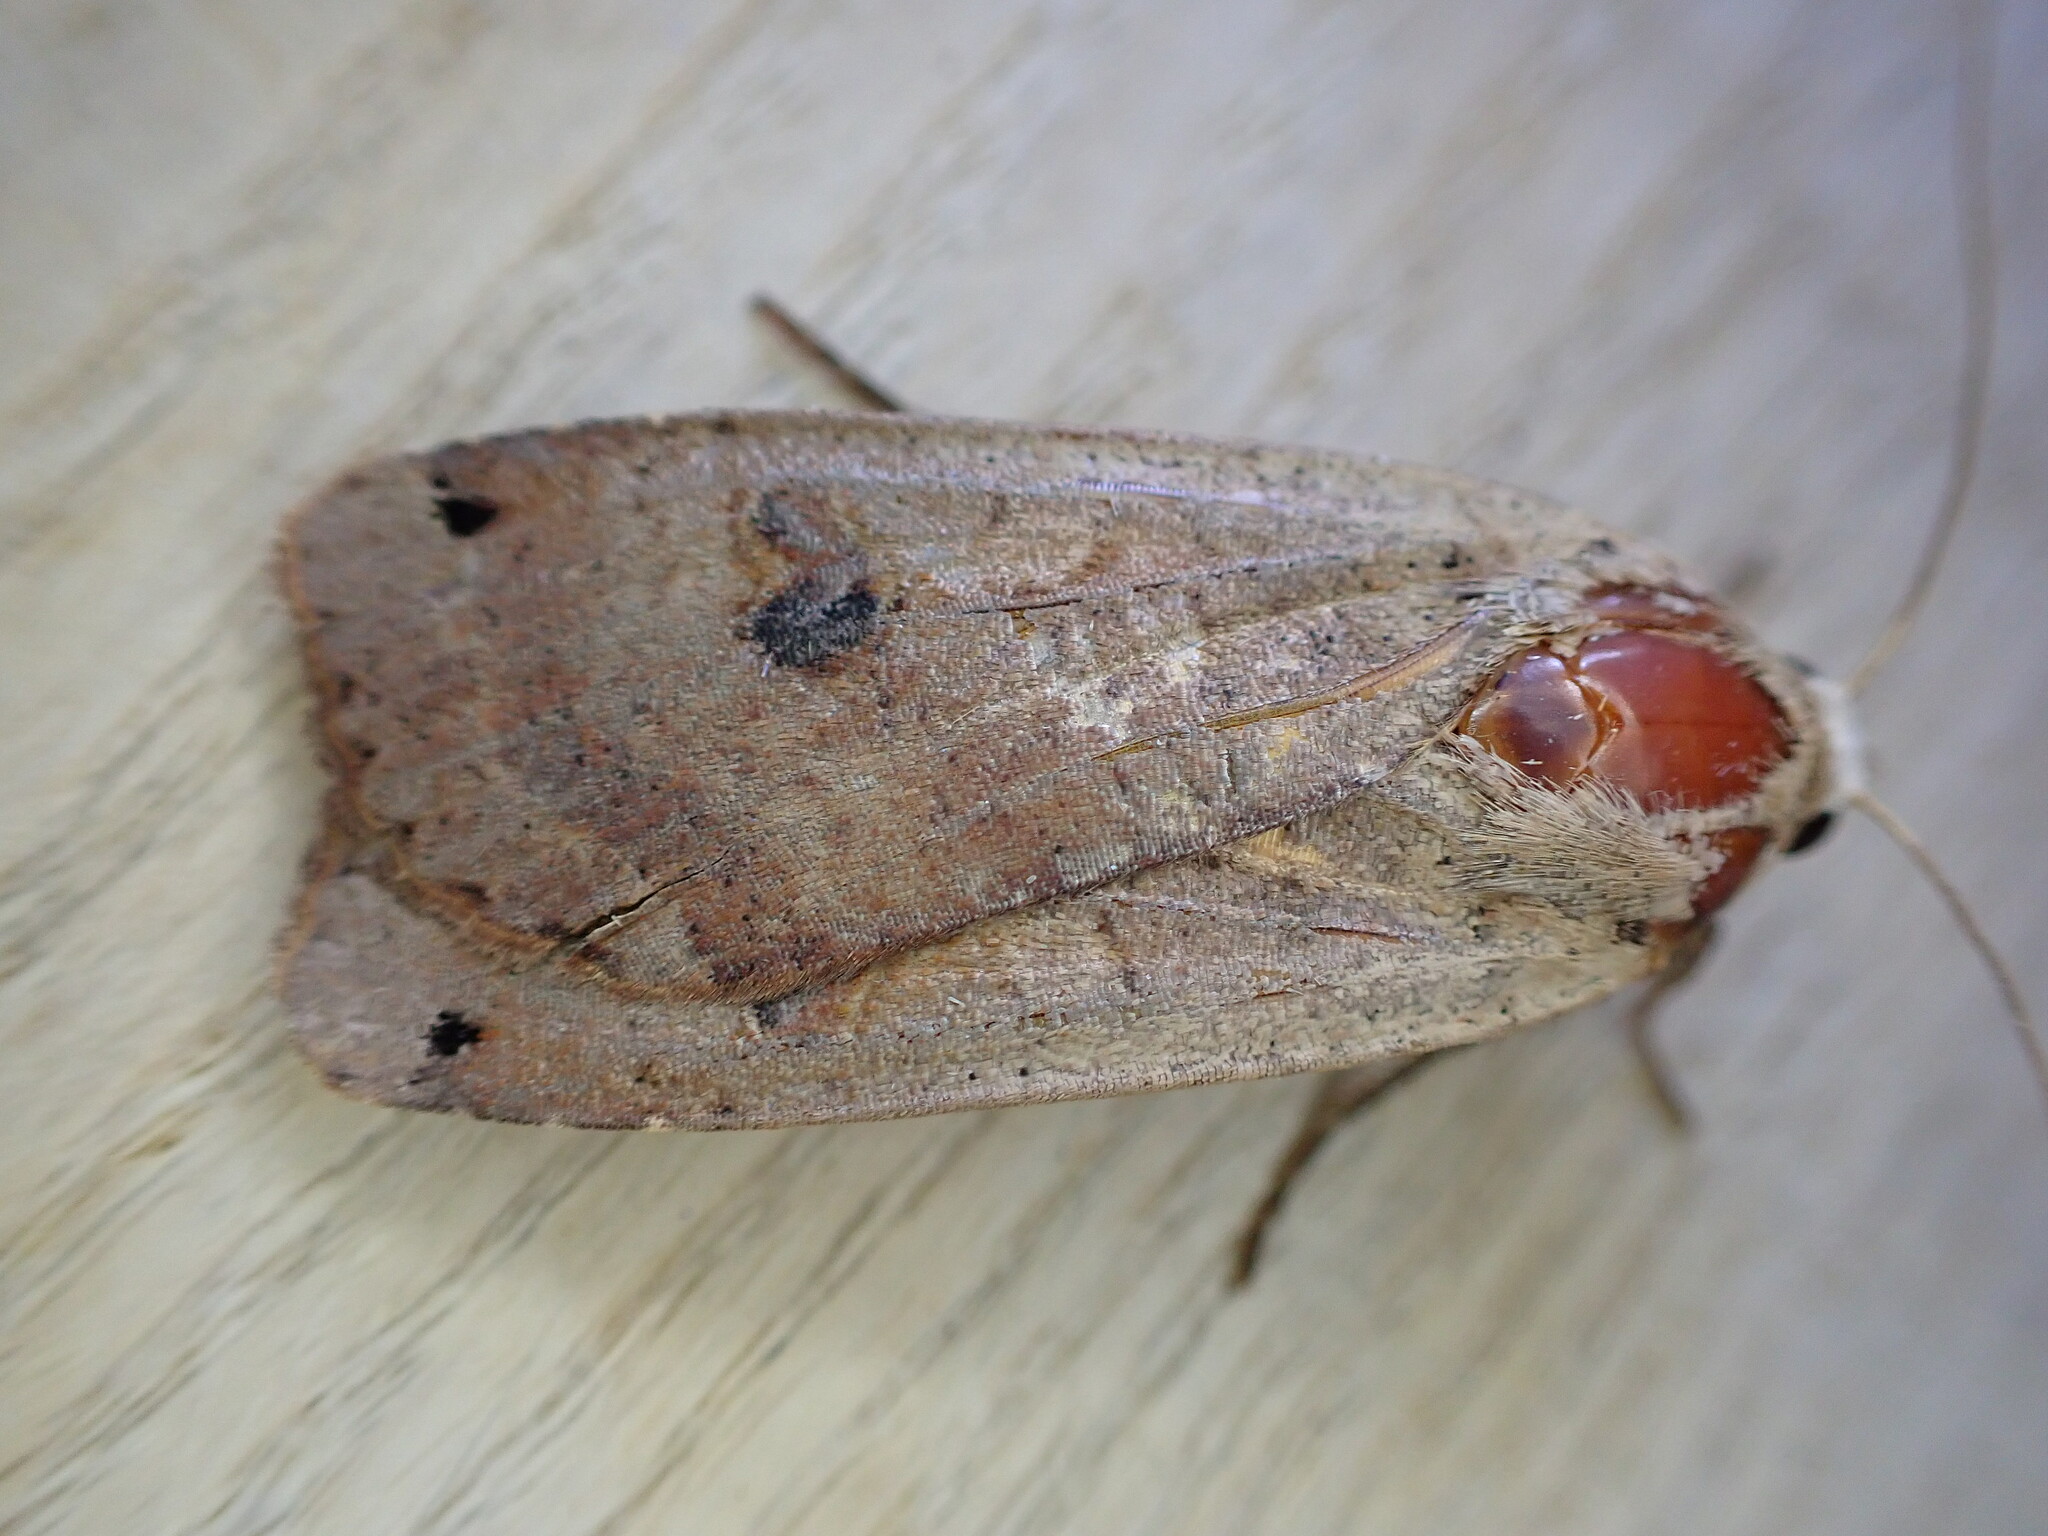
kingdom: Animalia
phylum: Arthropoda
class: Insecta
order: Lepidoptera
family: Noctuidae
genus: Noctua
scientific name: Noctua pronuba
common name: Large yellow underwing
